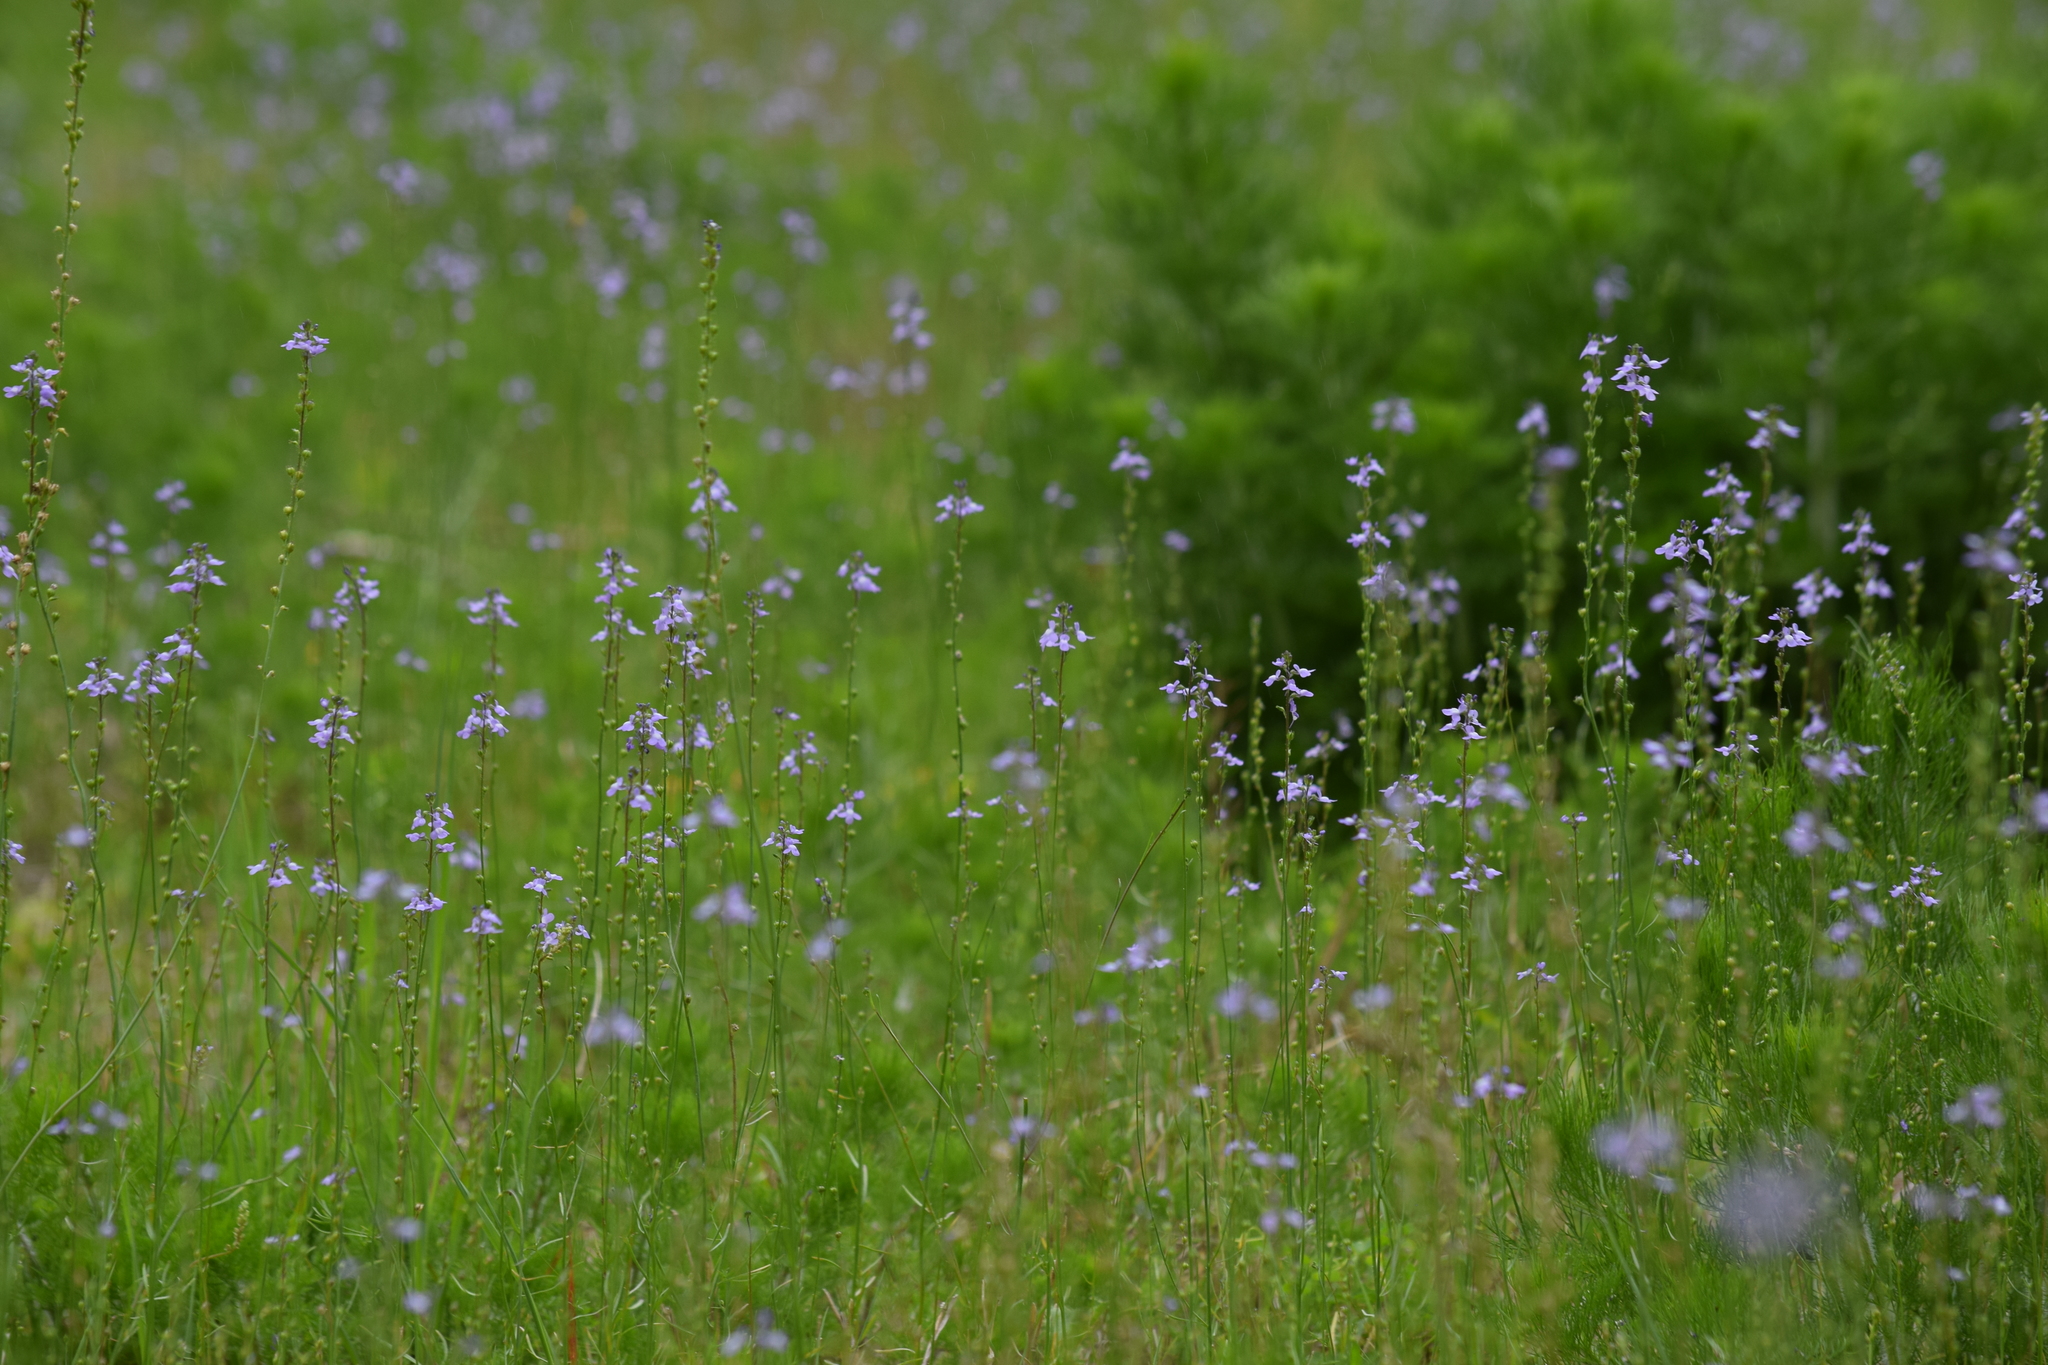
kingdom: Plantae
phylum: Tracheophyta
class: Magnoliopsida
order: Lamiales
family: Plantaginaceae
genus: Nuttallanthus
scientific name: Nuttallanthus canadensis
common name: Blue toadflax
